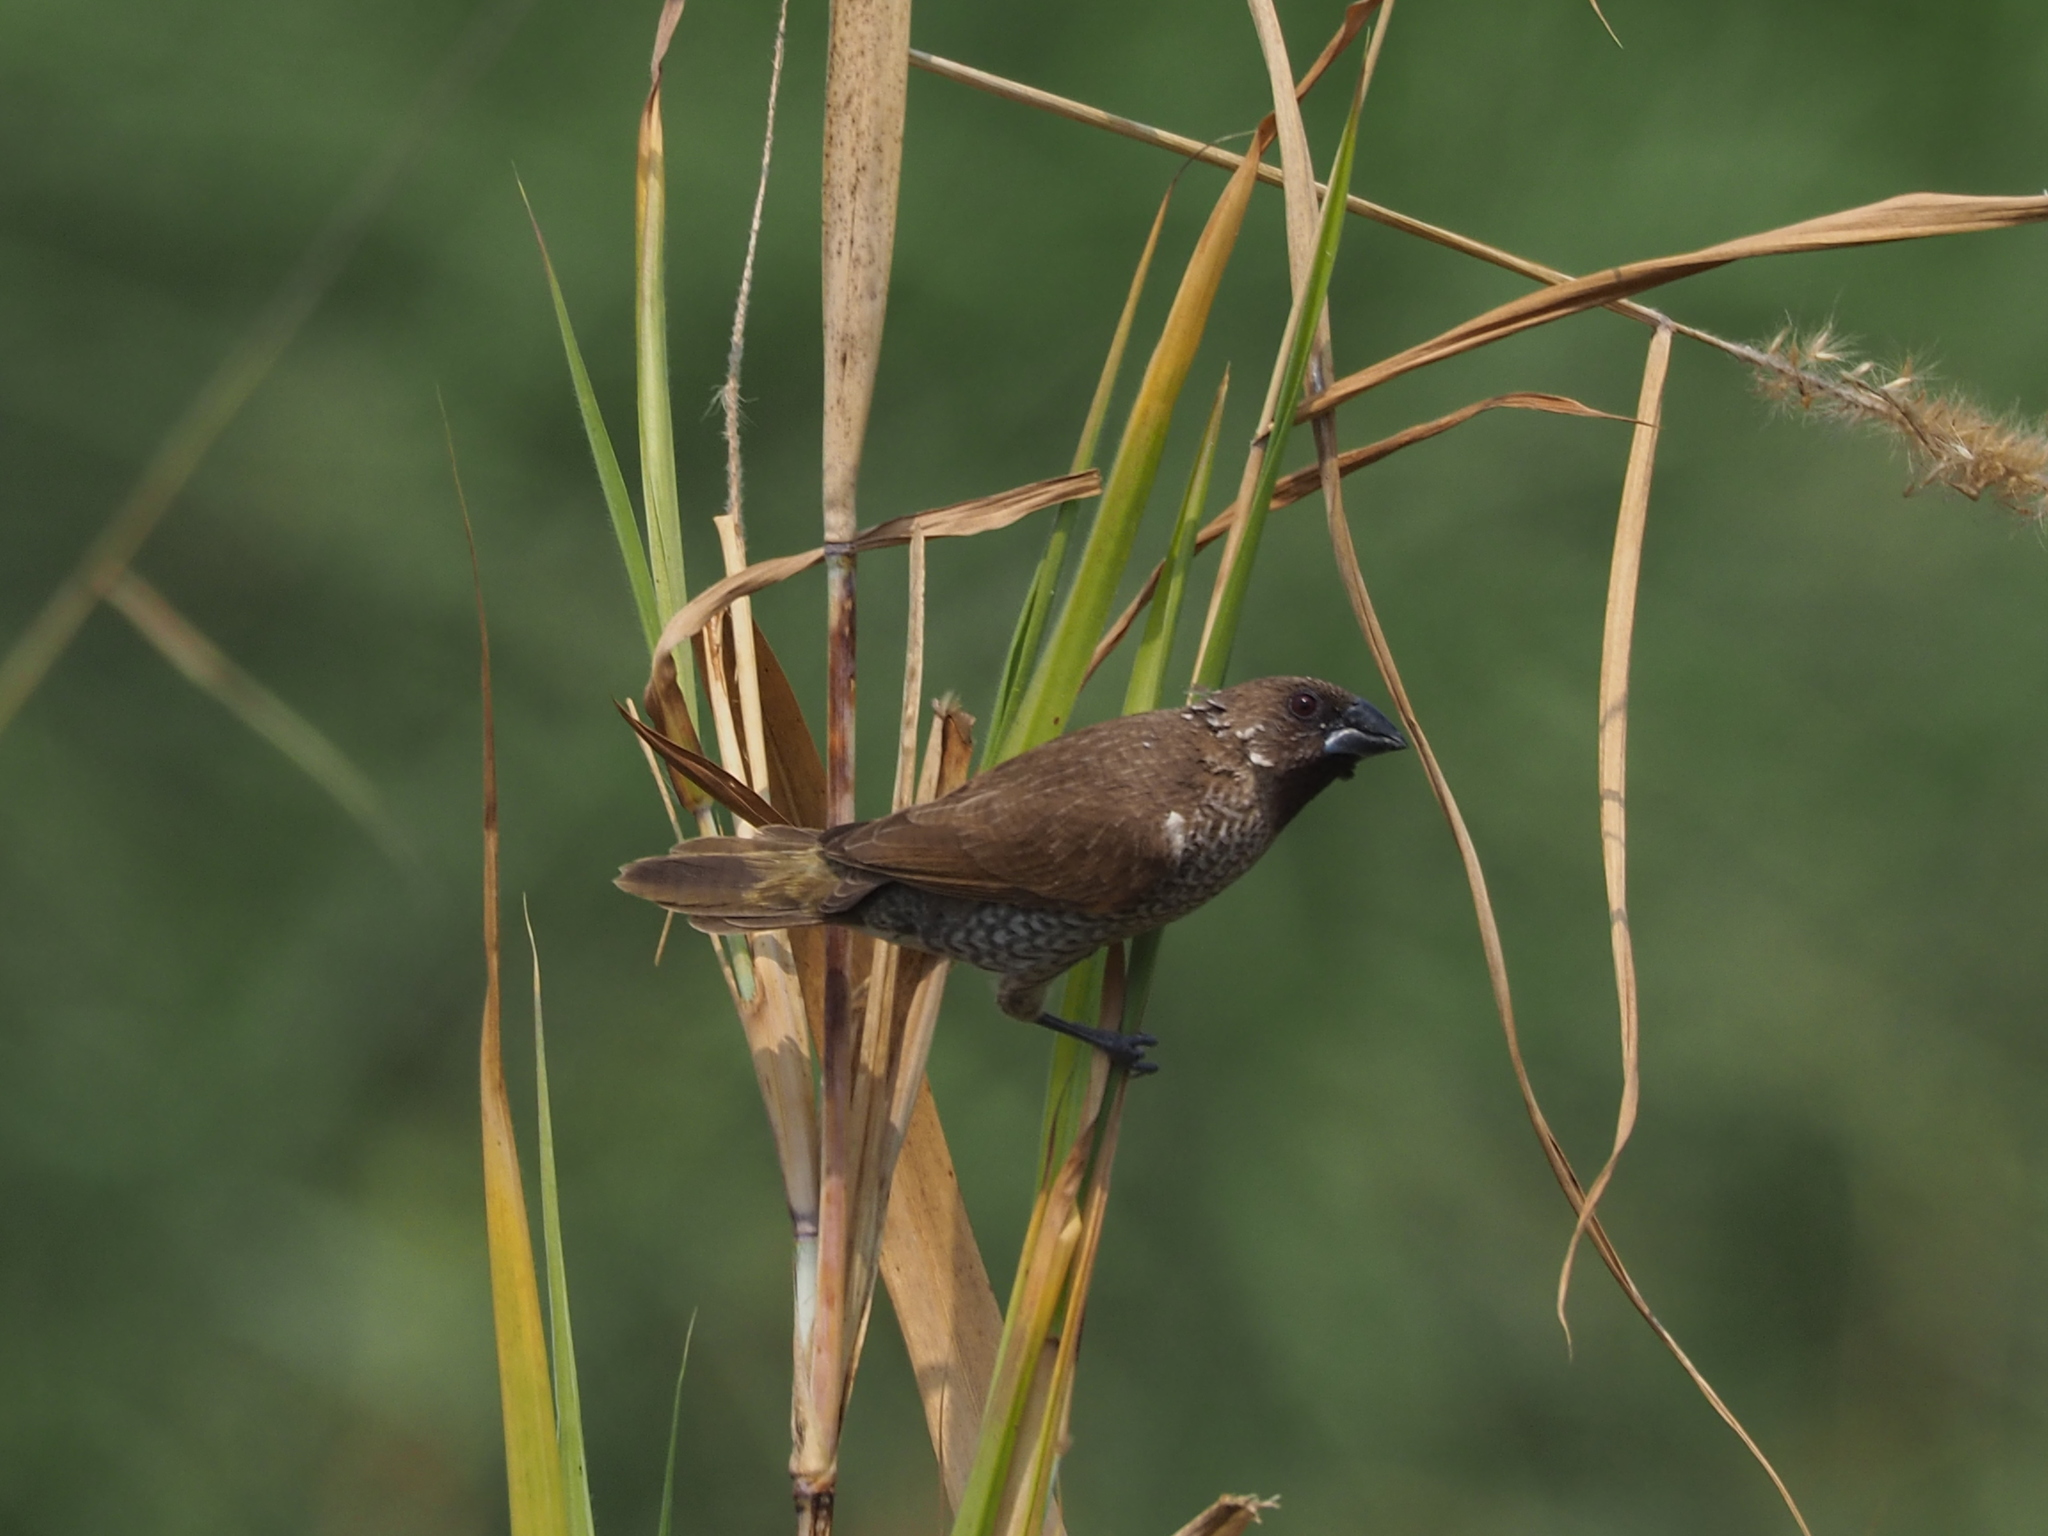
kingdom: Animalia
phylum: Chordata
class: Aves
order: Passeriformes
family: Estrildidae
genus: Lonchura
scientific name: Lonchura punctulata
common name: Scaly-breasted munia
